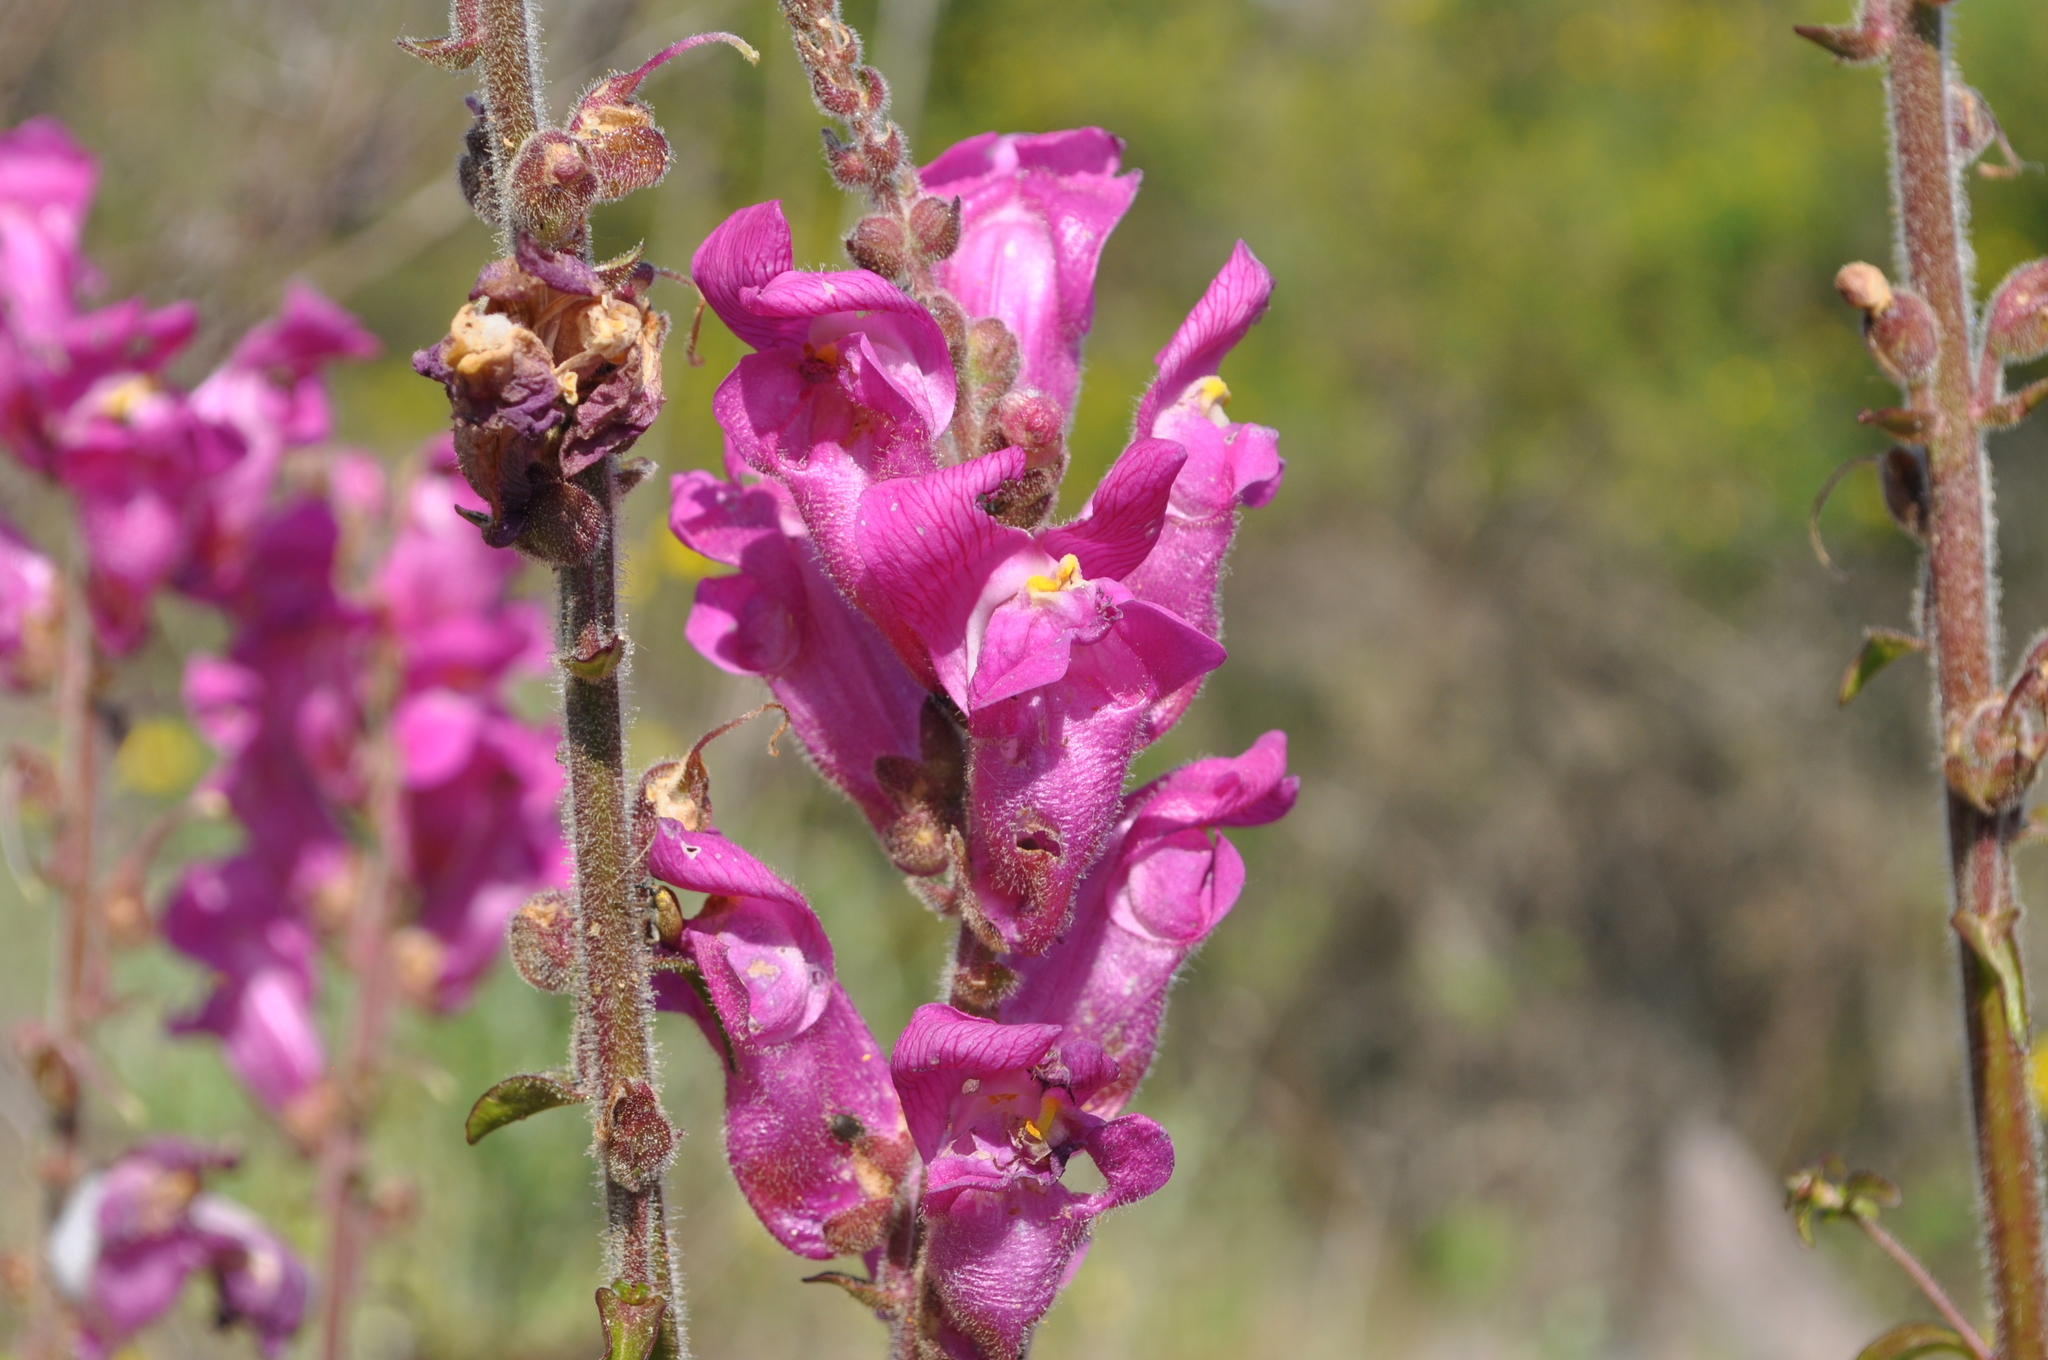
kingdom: Plantae
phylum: Tracheophyta
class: Magnoliopsida
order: Lamiales
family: Plantaginaceae
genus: Antirrhinum
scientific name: Antirrhinum majus
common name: Snapdragon
